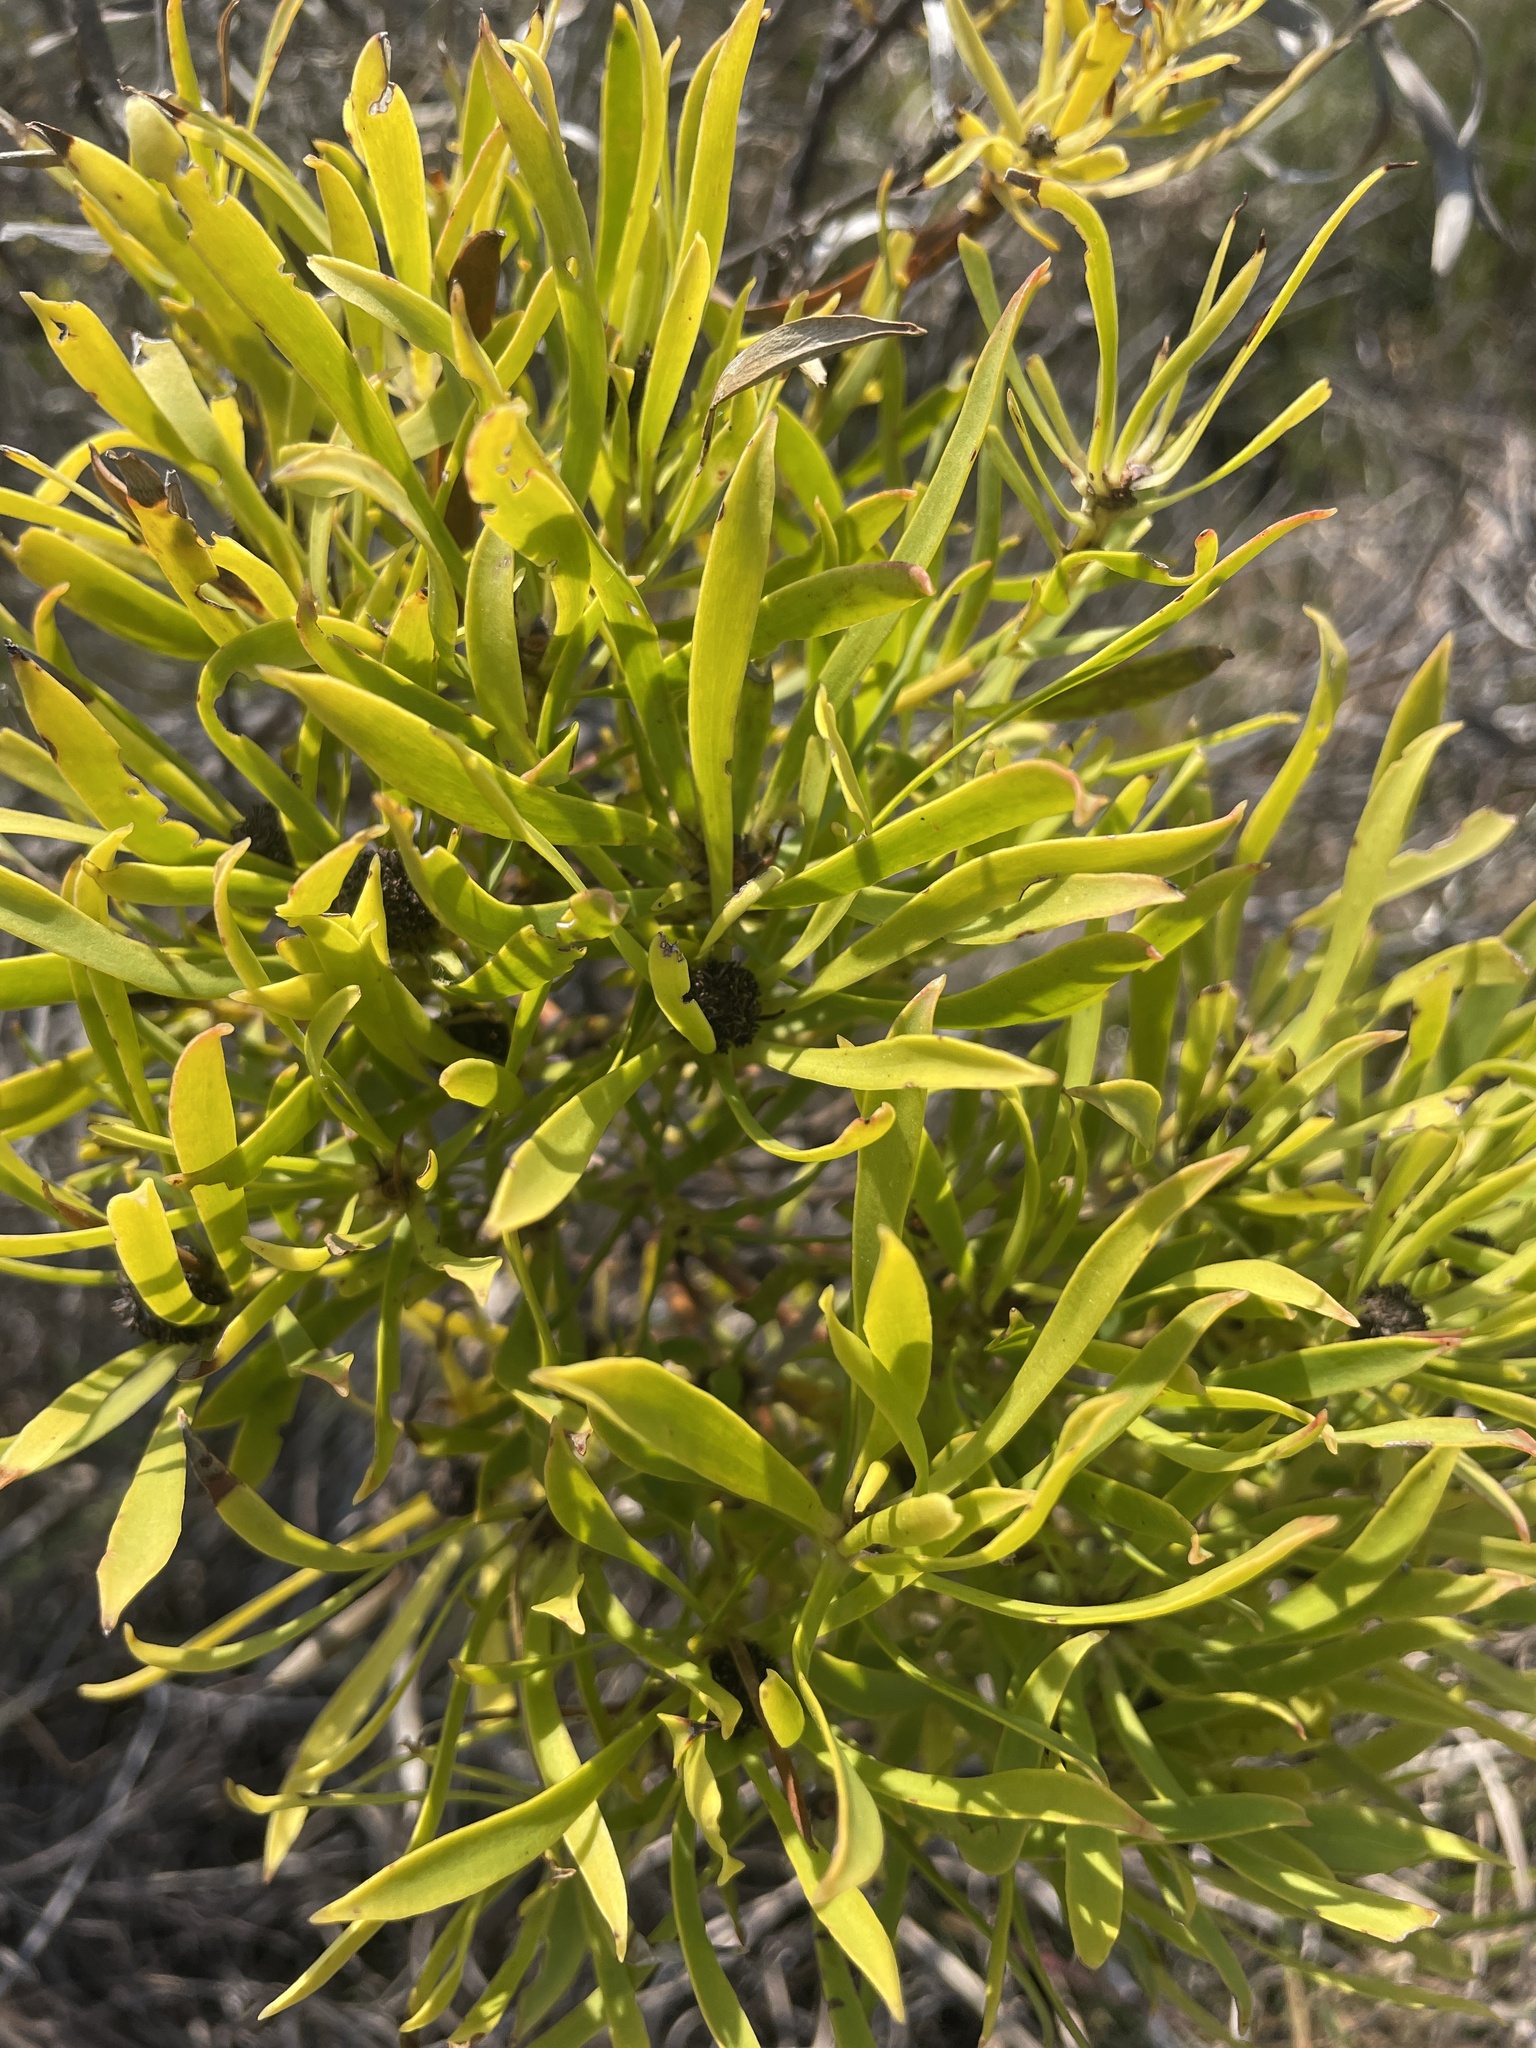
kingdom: Plantae
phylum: Tracheophyta
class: Magnoliopsida
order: Proteales
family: Proteaceae
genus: Leucadendron
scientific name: Leucadendron salignum
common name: Common sunshine conebush
